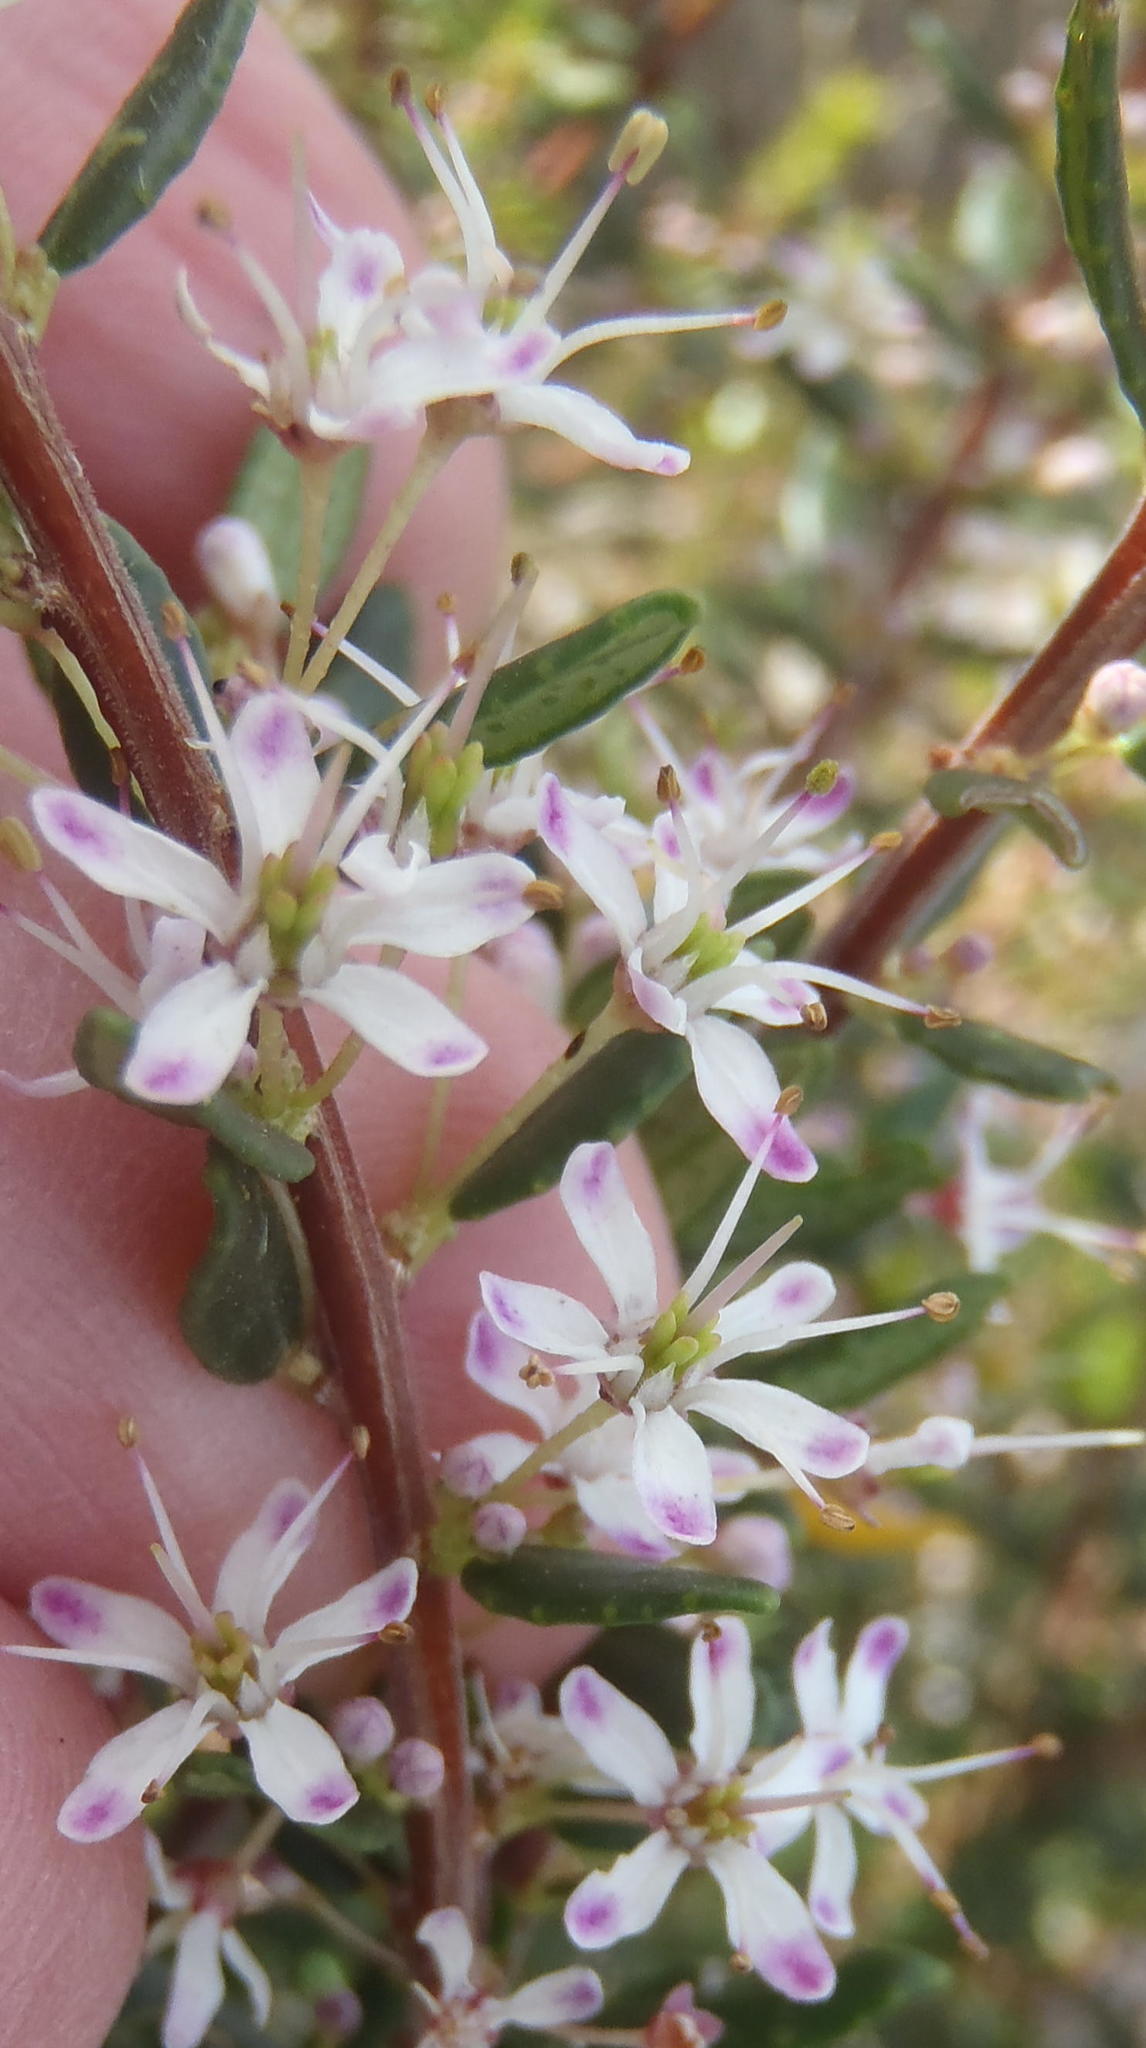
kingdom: Plantae
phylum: Tracheophyta
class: Magnoliopsida
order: Sapindales
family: Rutaceae
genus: Agathosma
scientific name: Agathosma ovata
